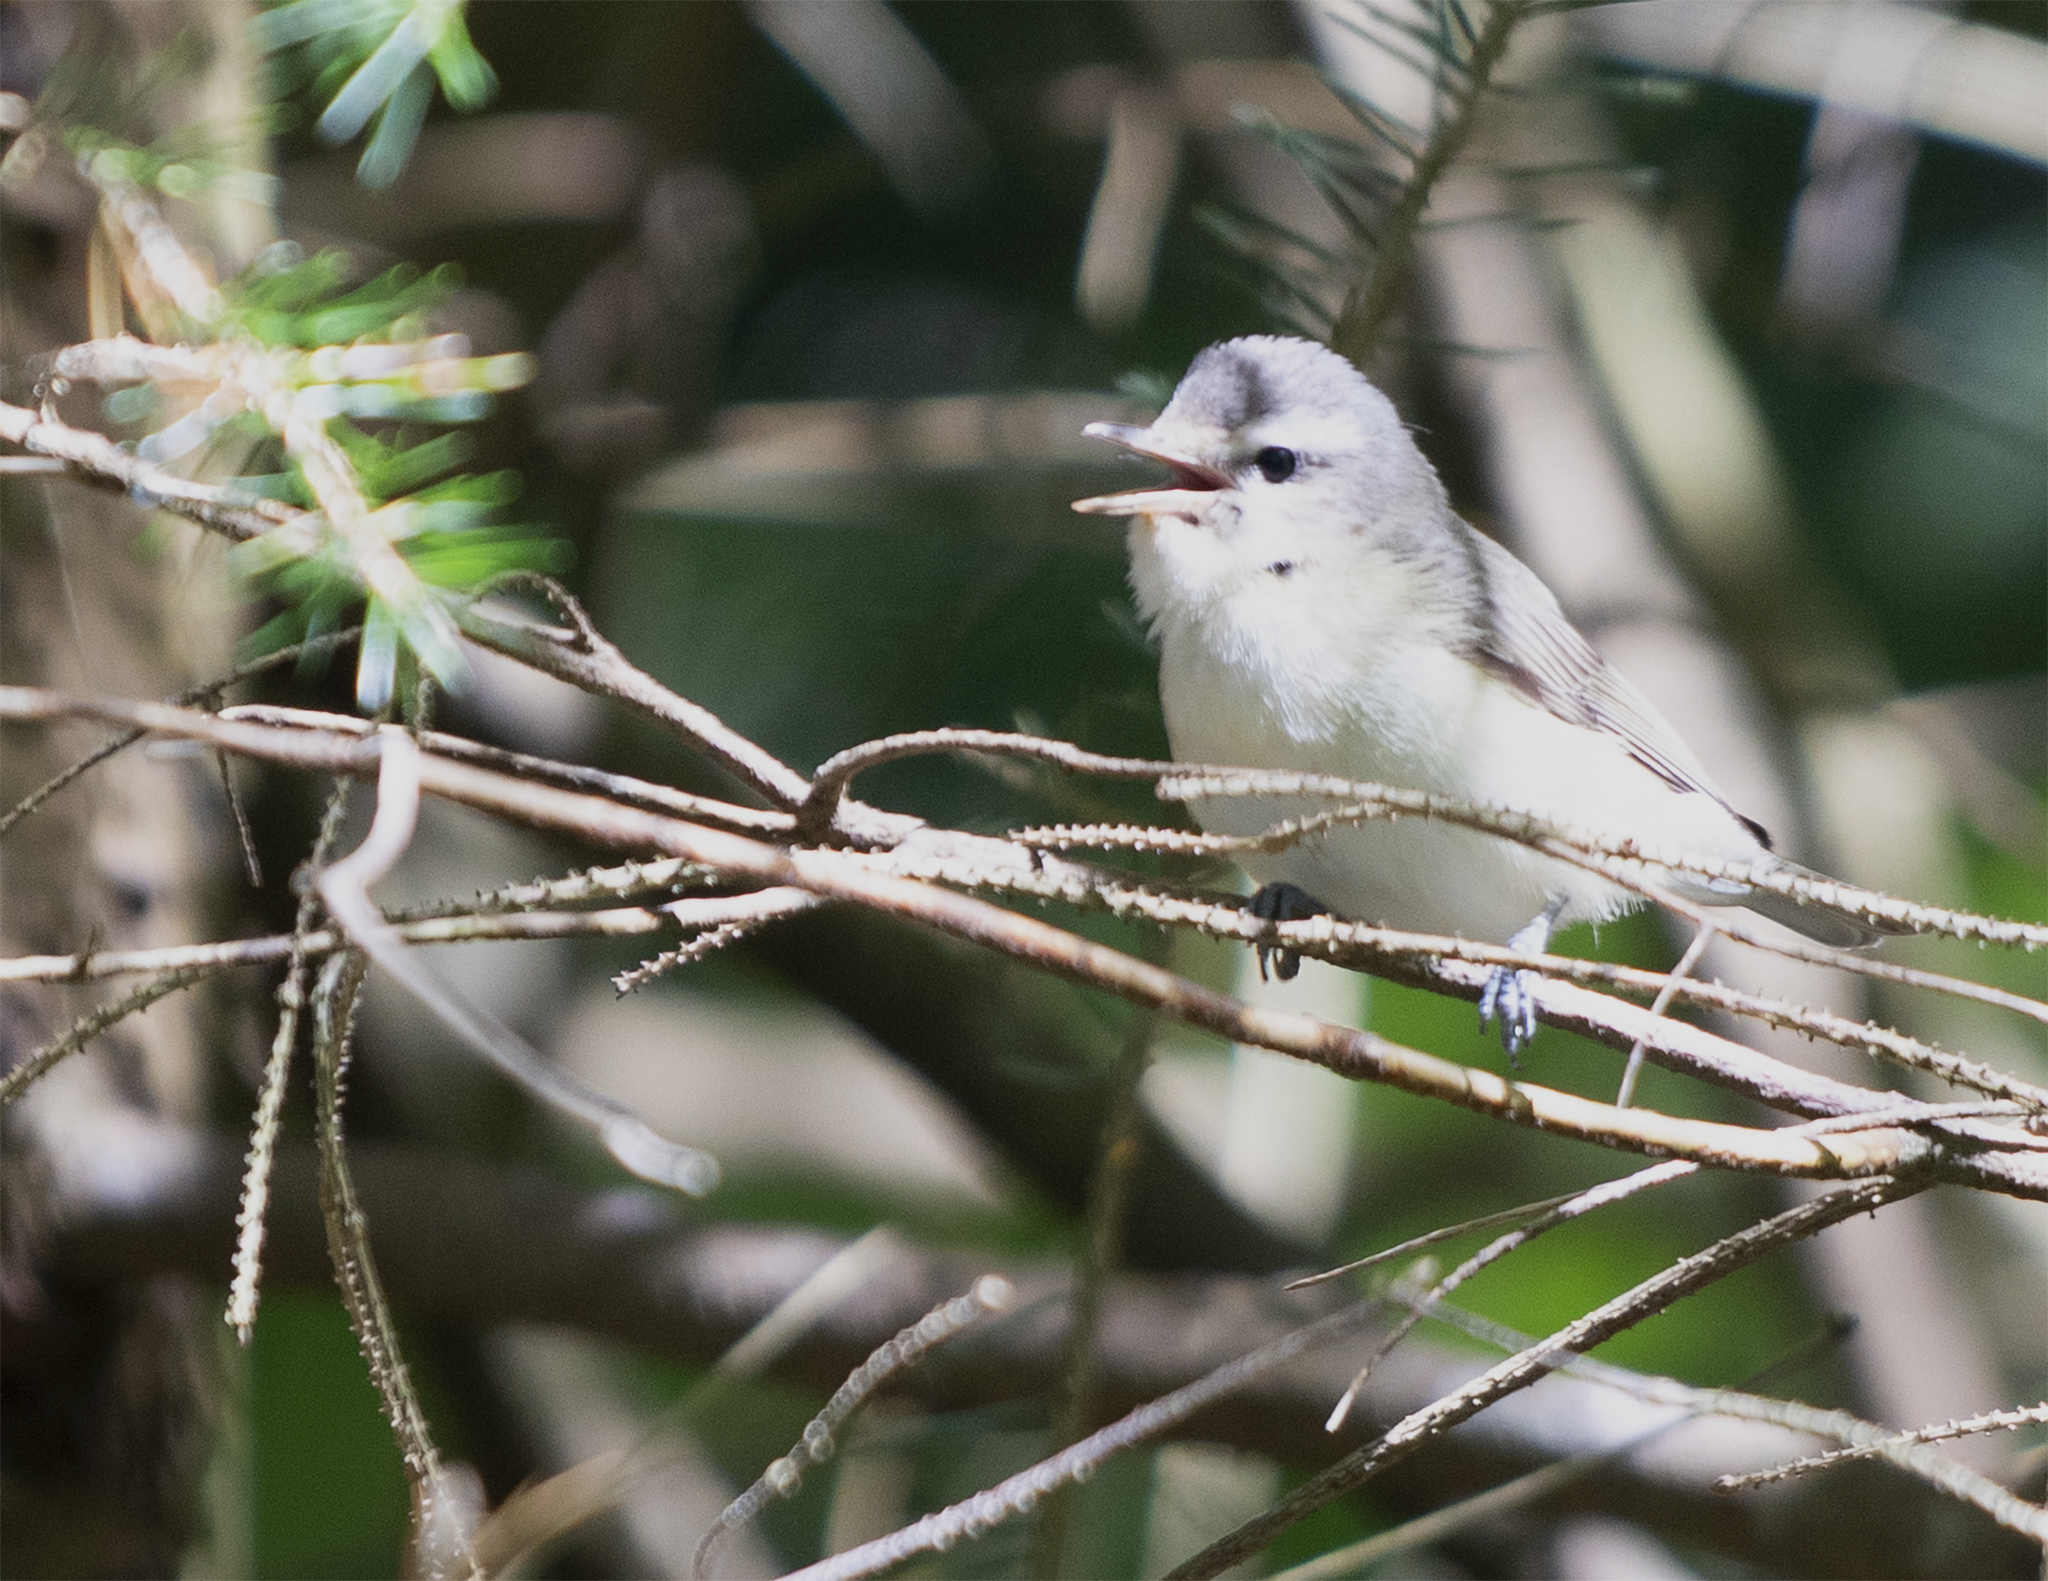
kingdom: Animalia
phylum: Chordata
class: Aves
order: Passeriformes
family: Vireonidae
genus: Vireo
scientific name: Vireo gilvus
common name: Warbling vireo
